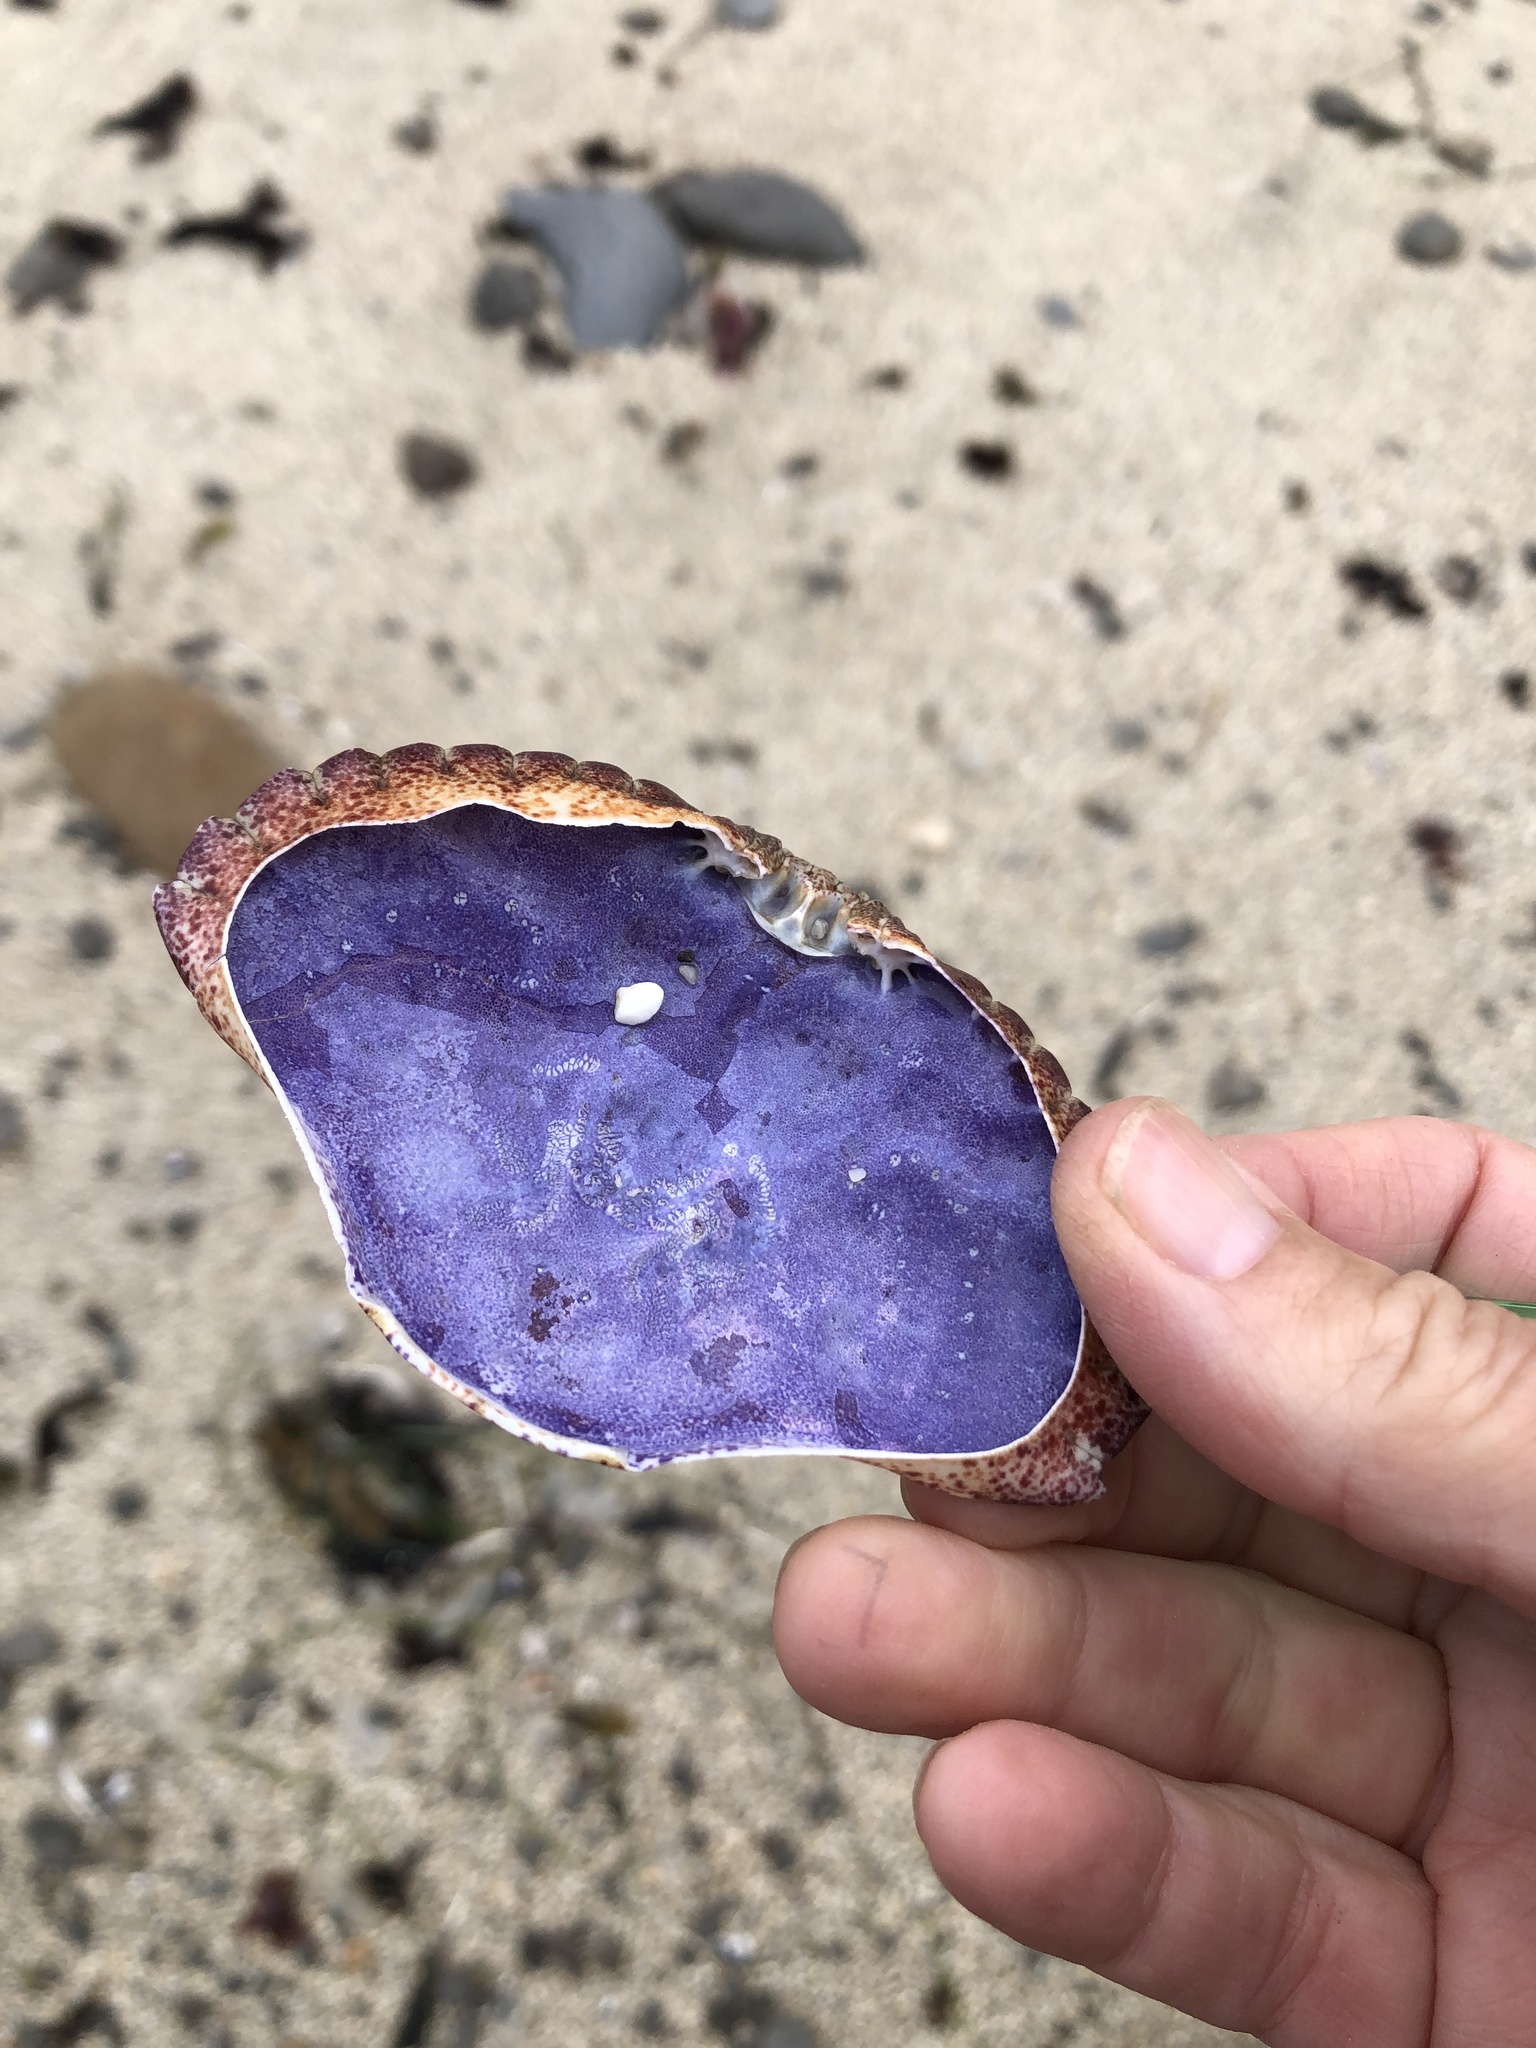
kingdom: Animalia
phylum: Arthropoda
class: Malacostraca
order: Decapoda
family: Cancridae
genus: Cancer
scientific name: Cancer productus
